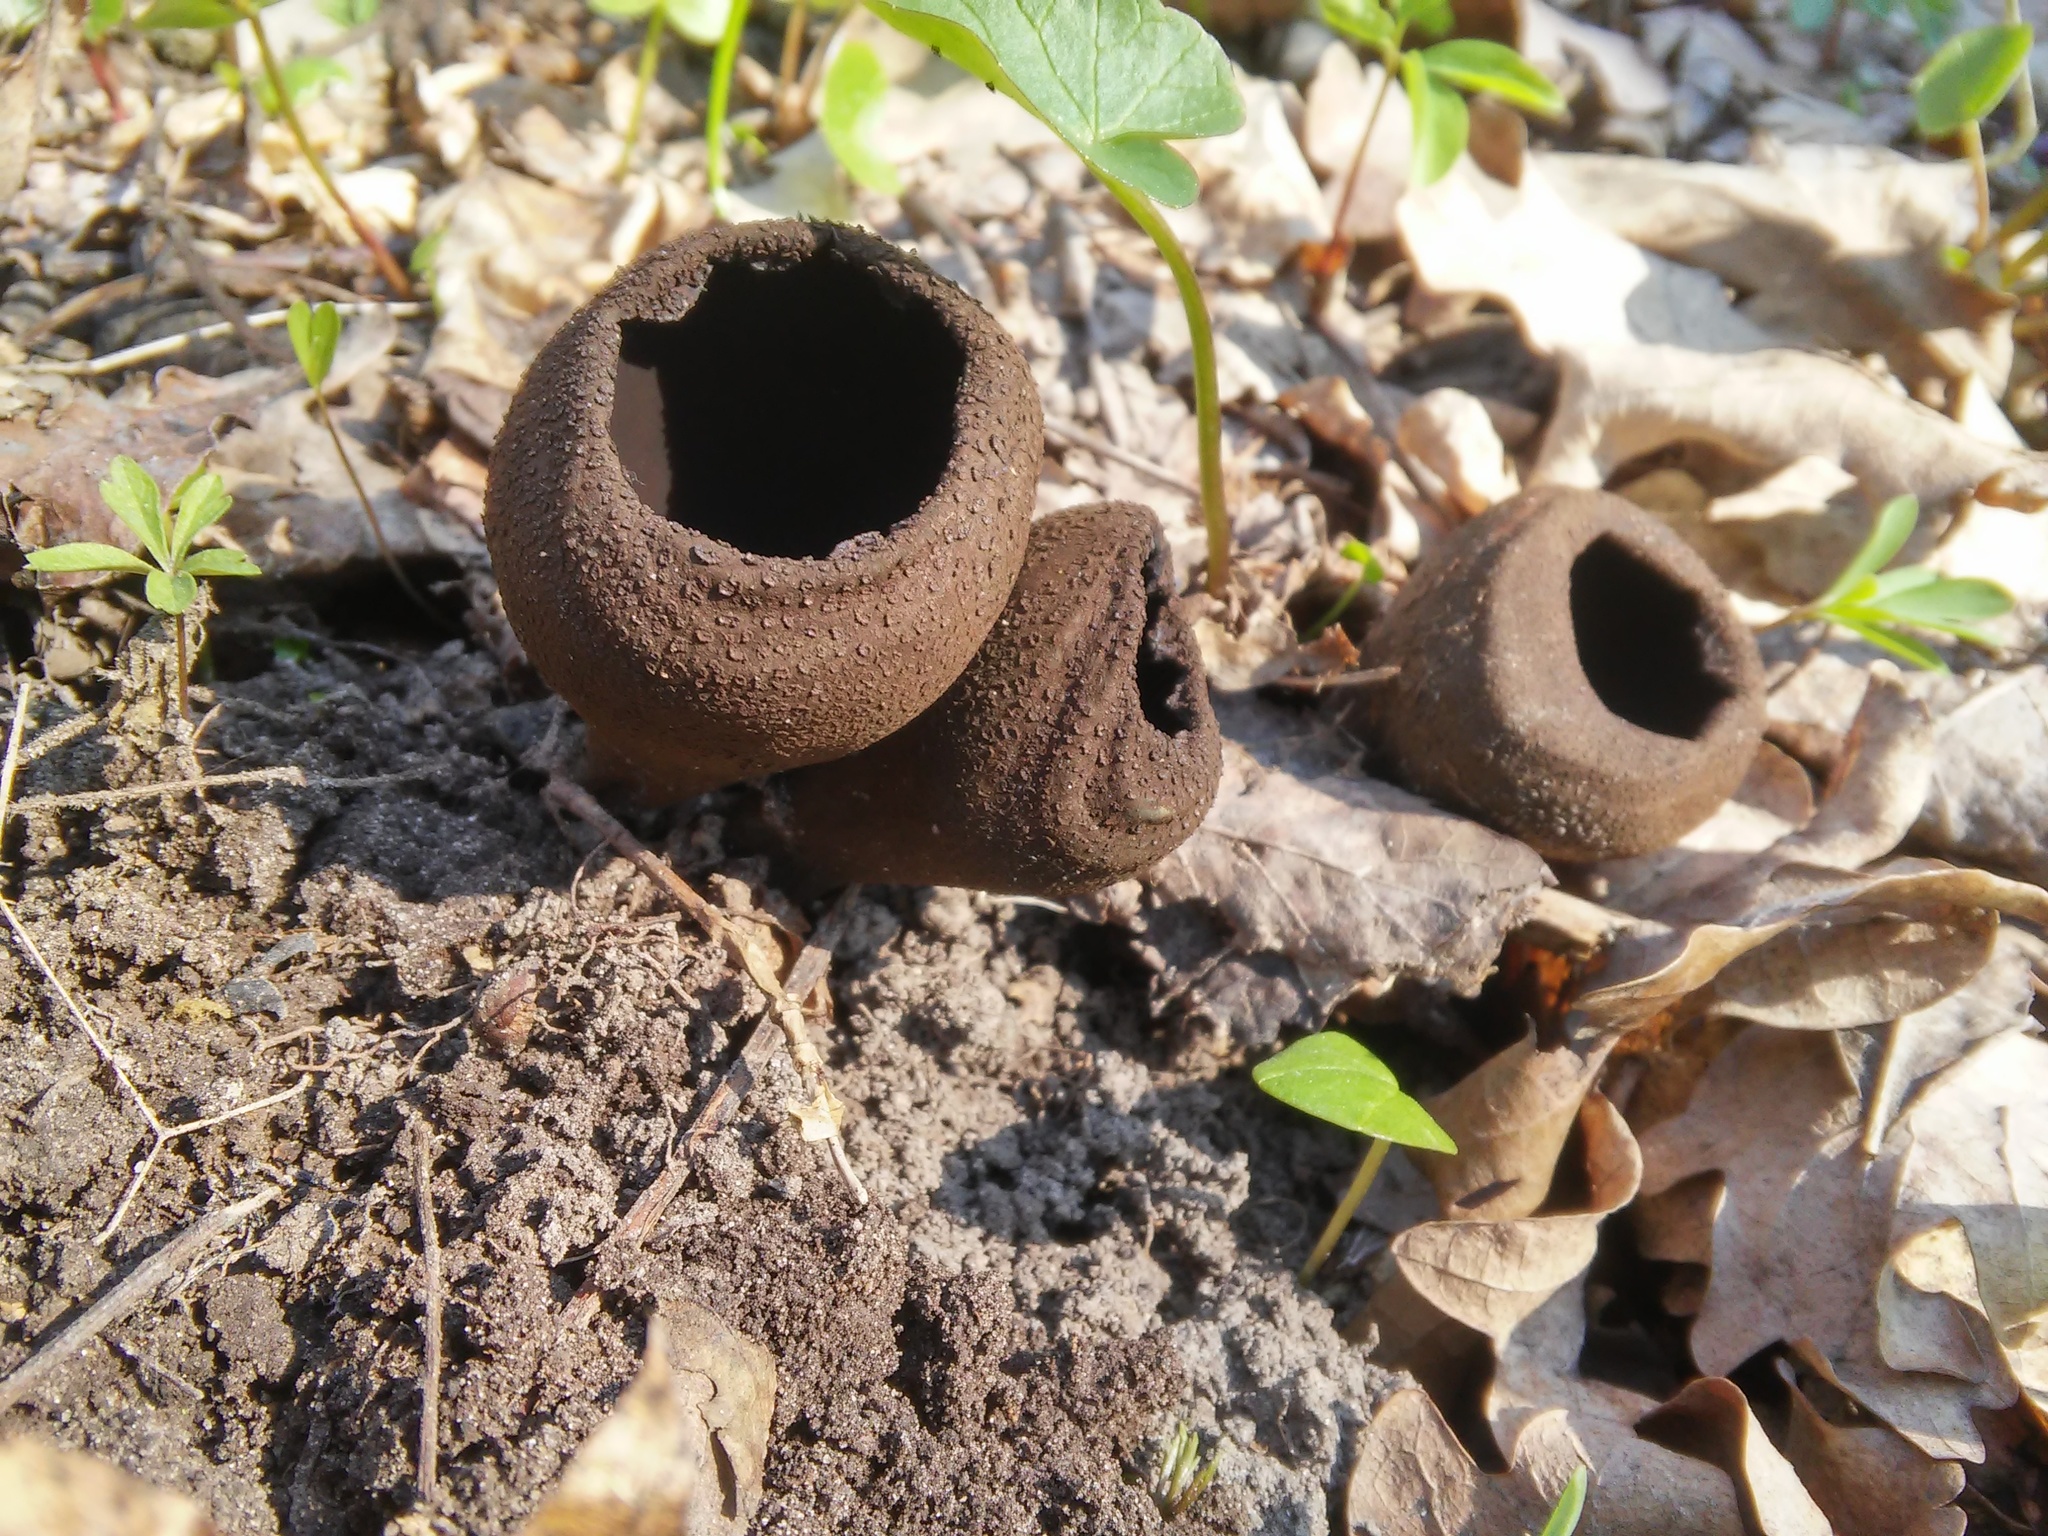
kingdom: Fungi
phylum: Ascomycota
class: Pezizomycetes
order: Pezizales
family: Sarcosomataceae
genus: Urnula
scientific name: Urnula craterium
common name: Devil's urn
